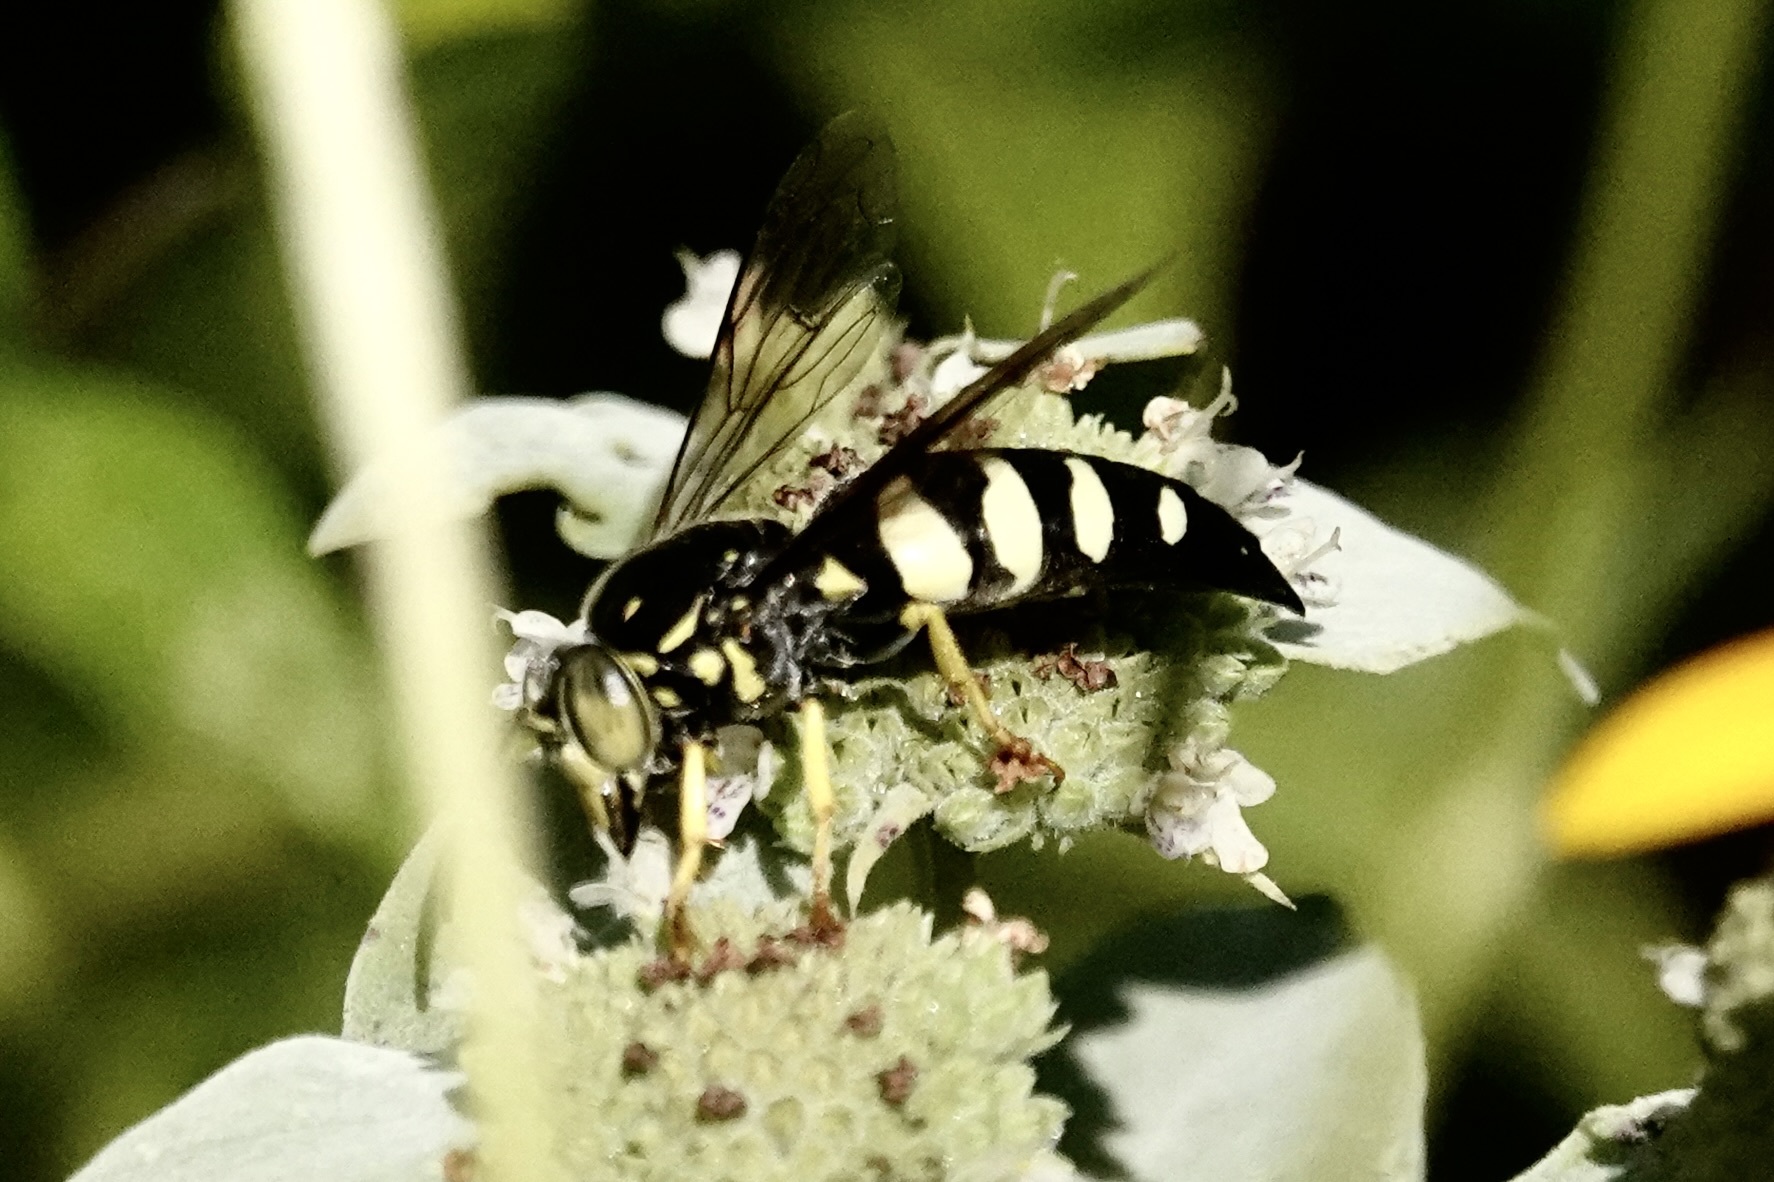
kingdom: Animalia
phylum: Arthropoda
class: Insecta
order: Hymenoptera
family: Crabronidae
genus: Bicyrtes
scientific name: Bicyrtes quadrifasciatus
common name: Four-banded stink bug hunter wasp
